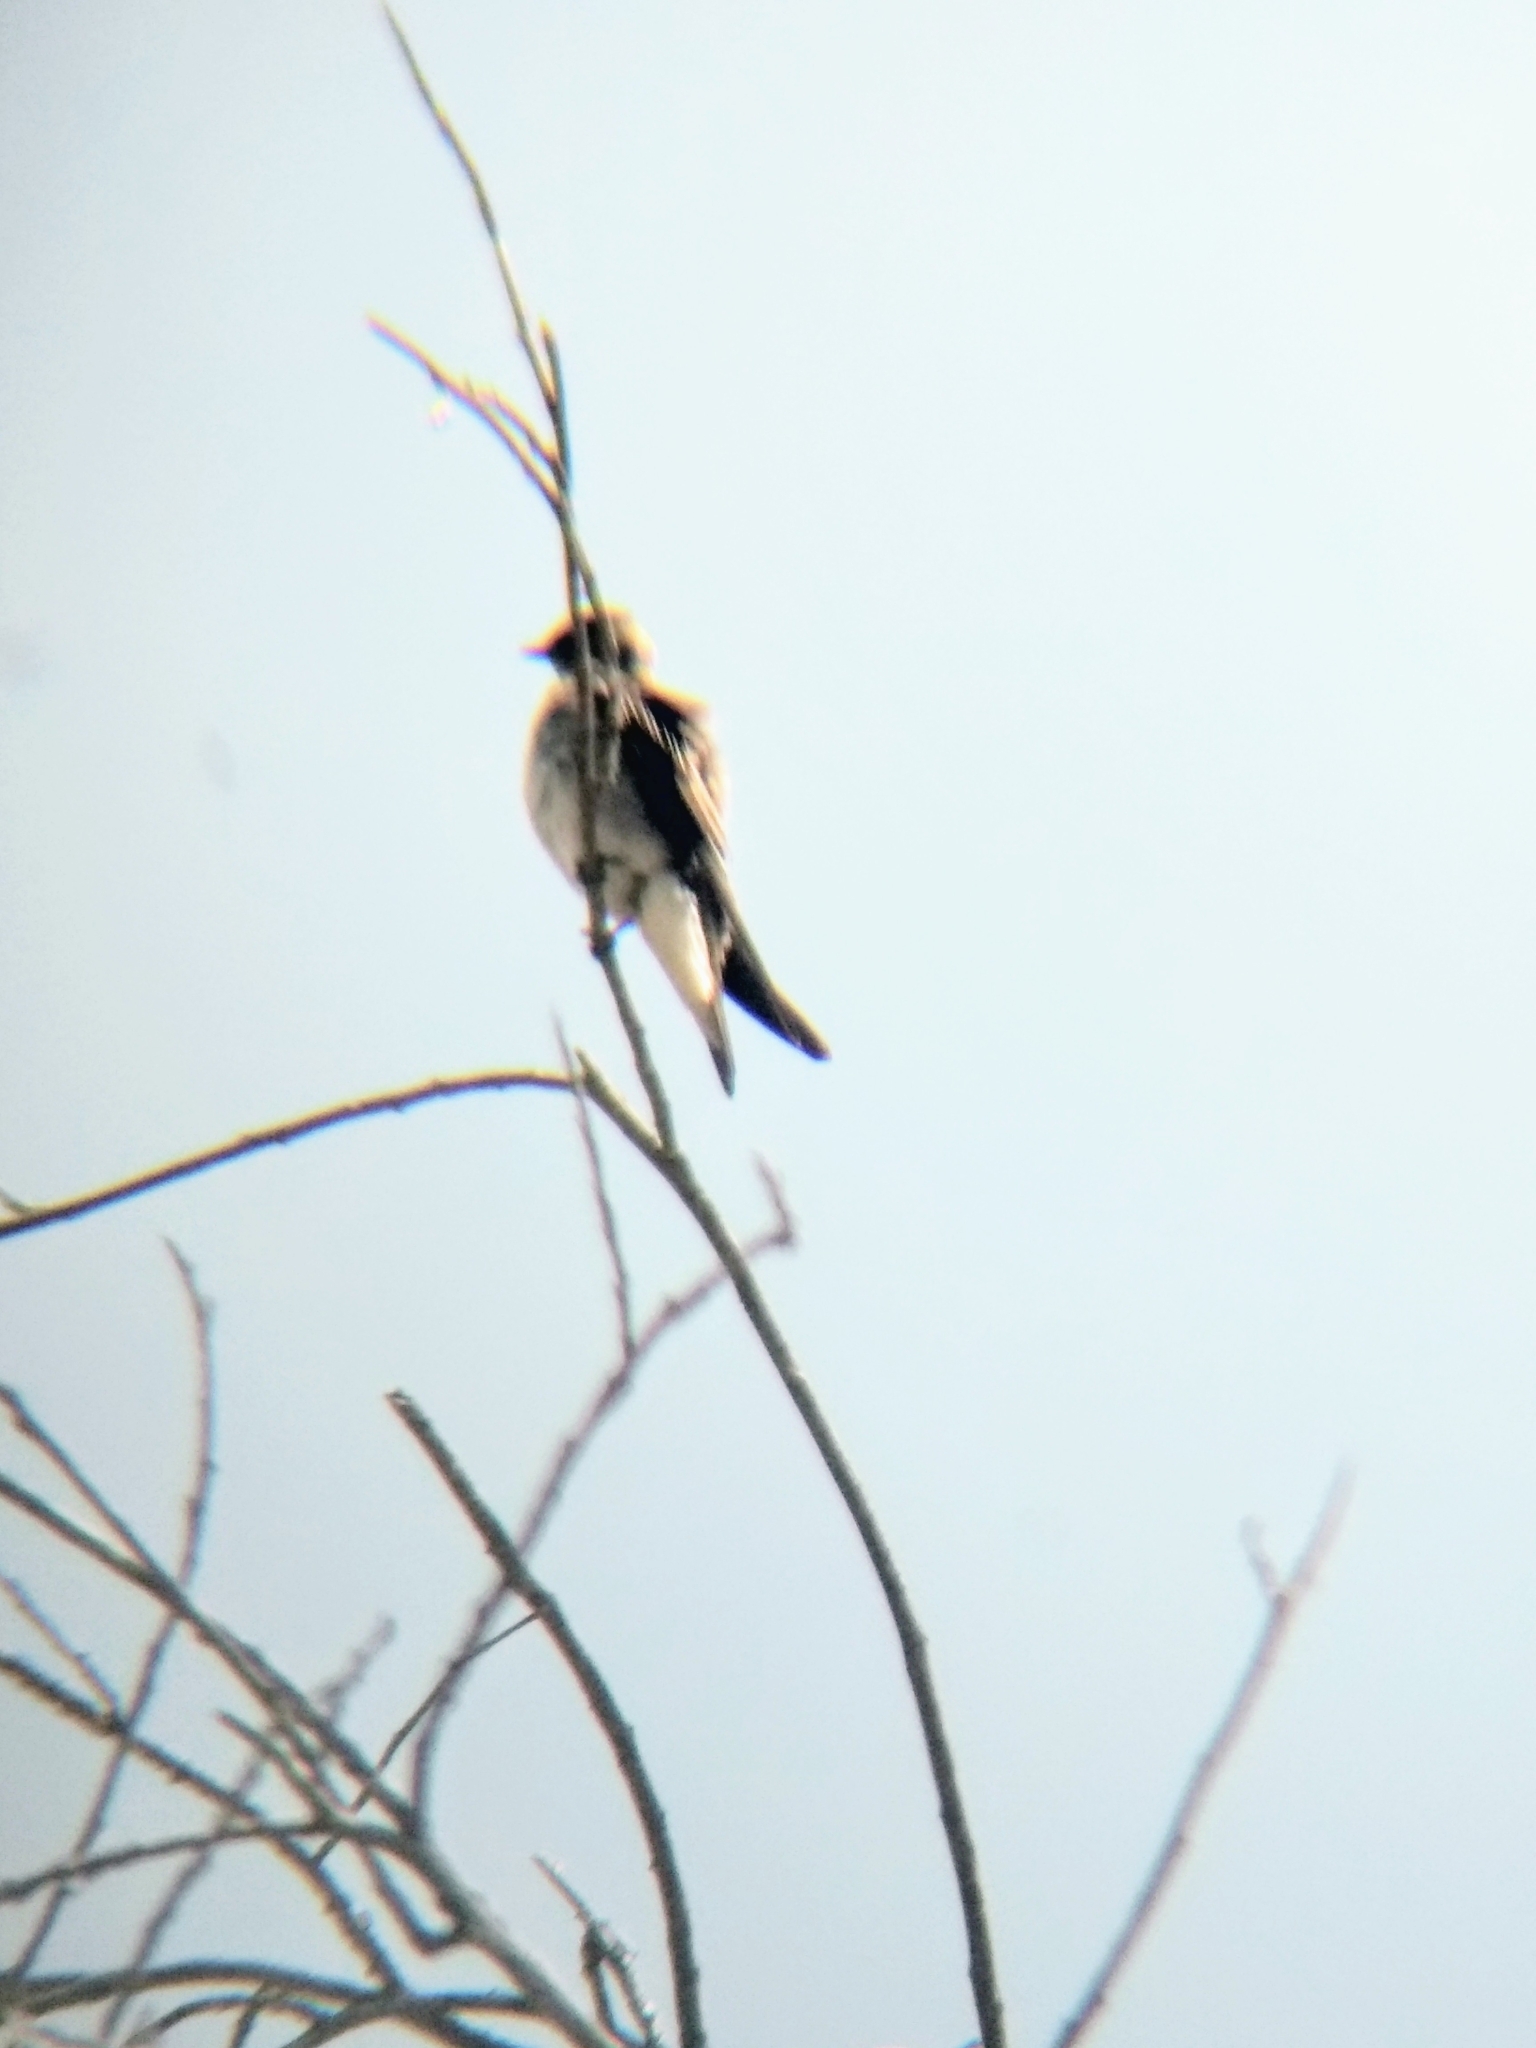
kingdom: Animalia
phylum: Chordata
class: Aves
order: Passeriformes
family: Hirundinidae
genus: Stelgidopteryx
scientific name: Stelgidopteryx serripennis
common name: Northern rough-winged swallow
